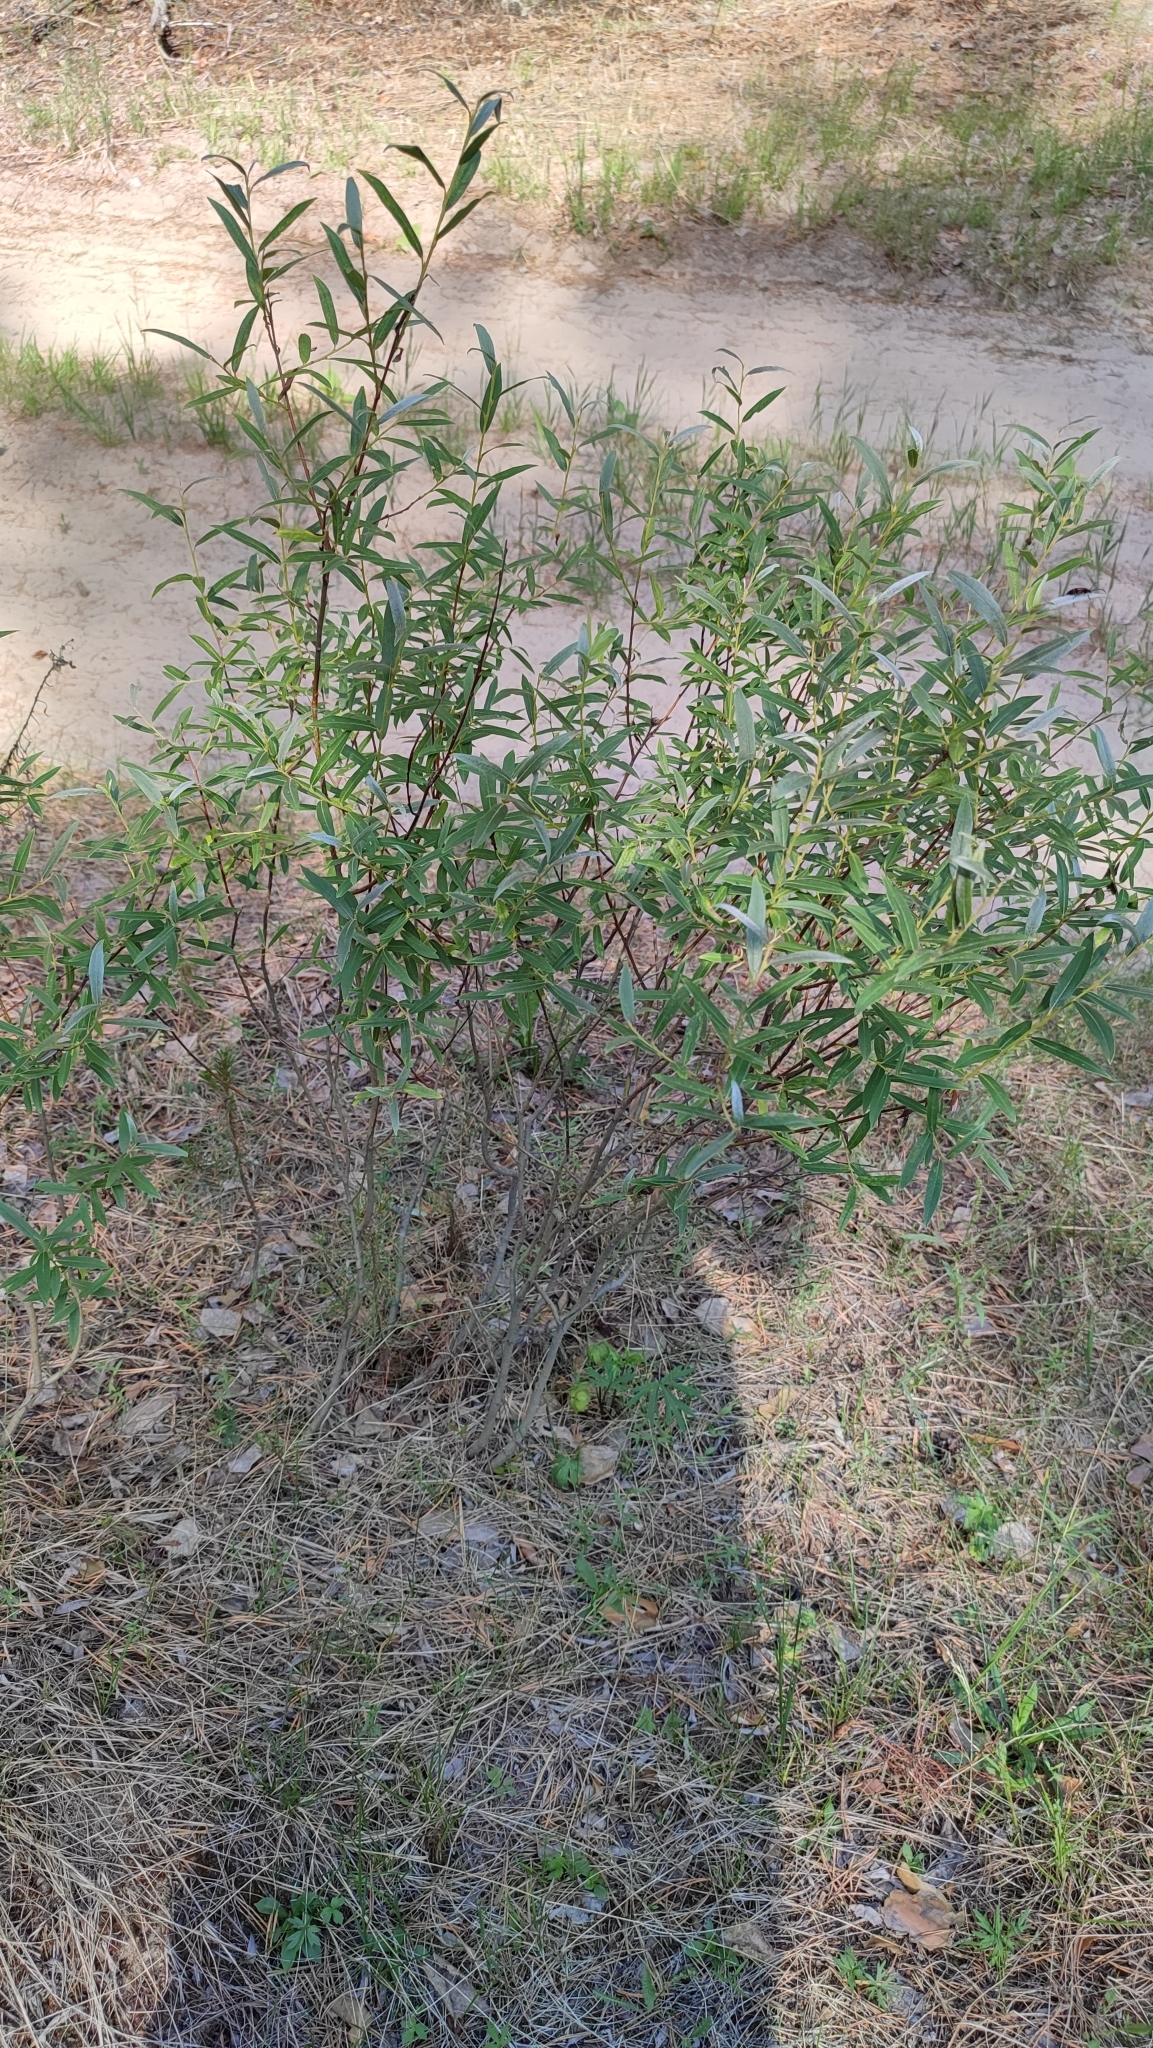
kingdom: Plantae
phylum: Tracheophyta
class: Magnoliopsida
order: Malpighiales
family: Salicaceae
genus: Salix
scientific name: Salix rosmarinifolia
